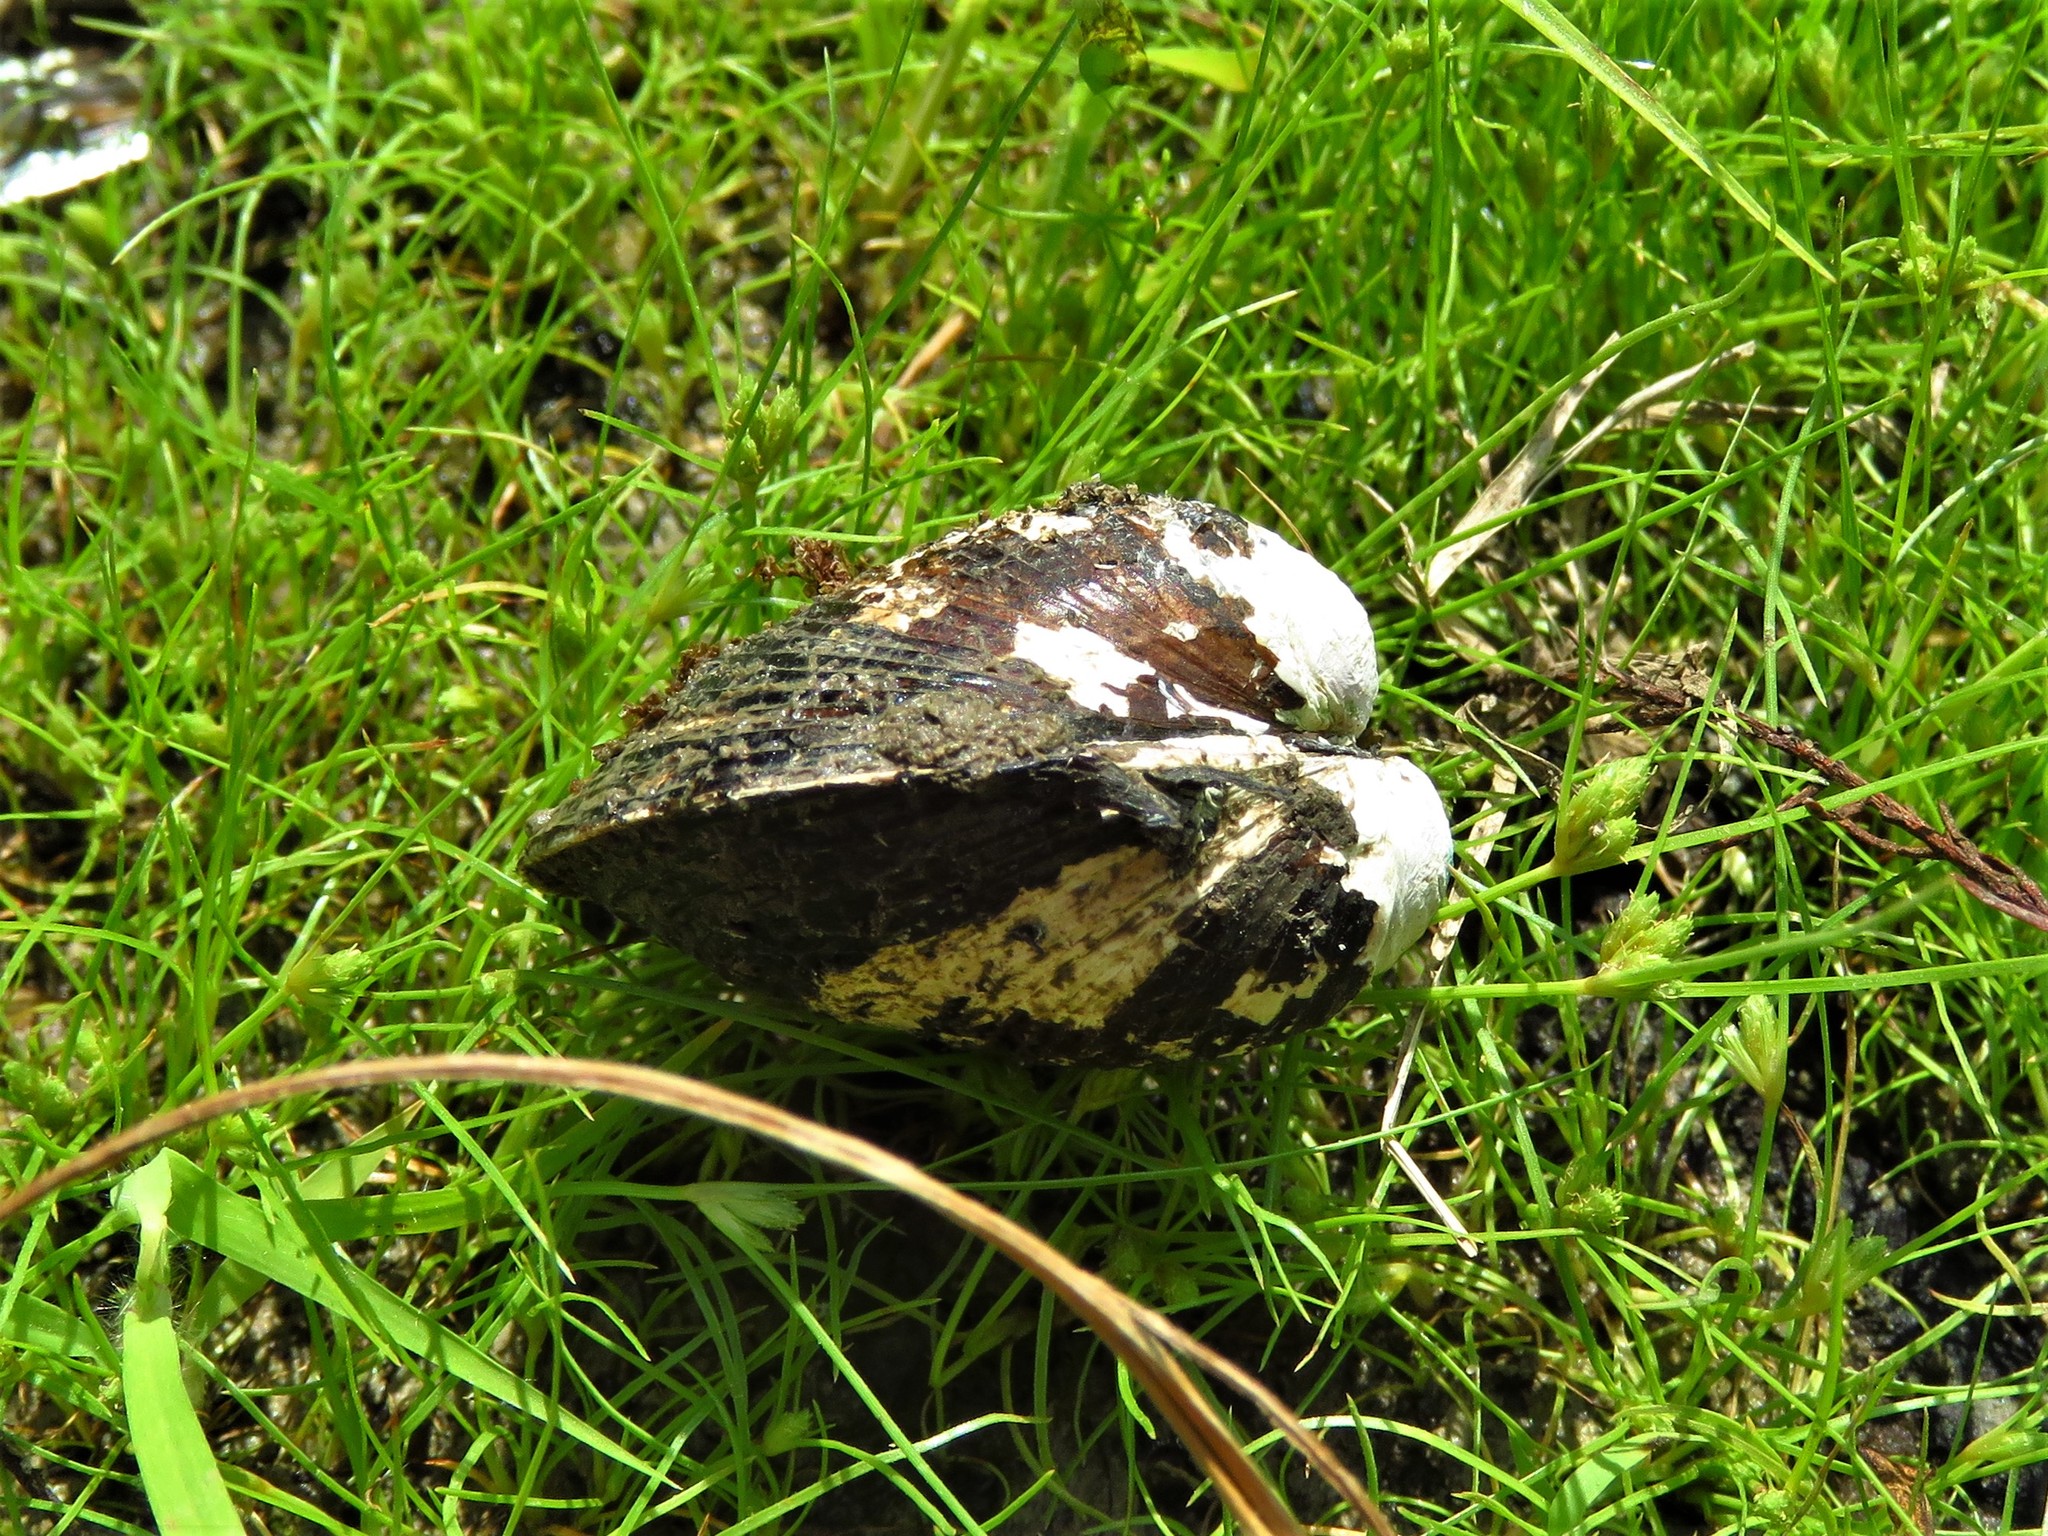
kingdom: Animalia
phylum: Mollusca
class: Bivalvia
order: Venerida
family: Cyrenidae
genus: Corbicula
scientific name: Corbicula fluminea
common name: Asian clam
